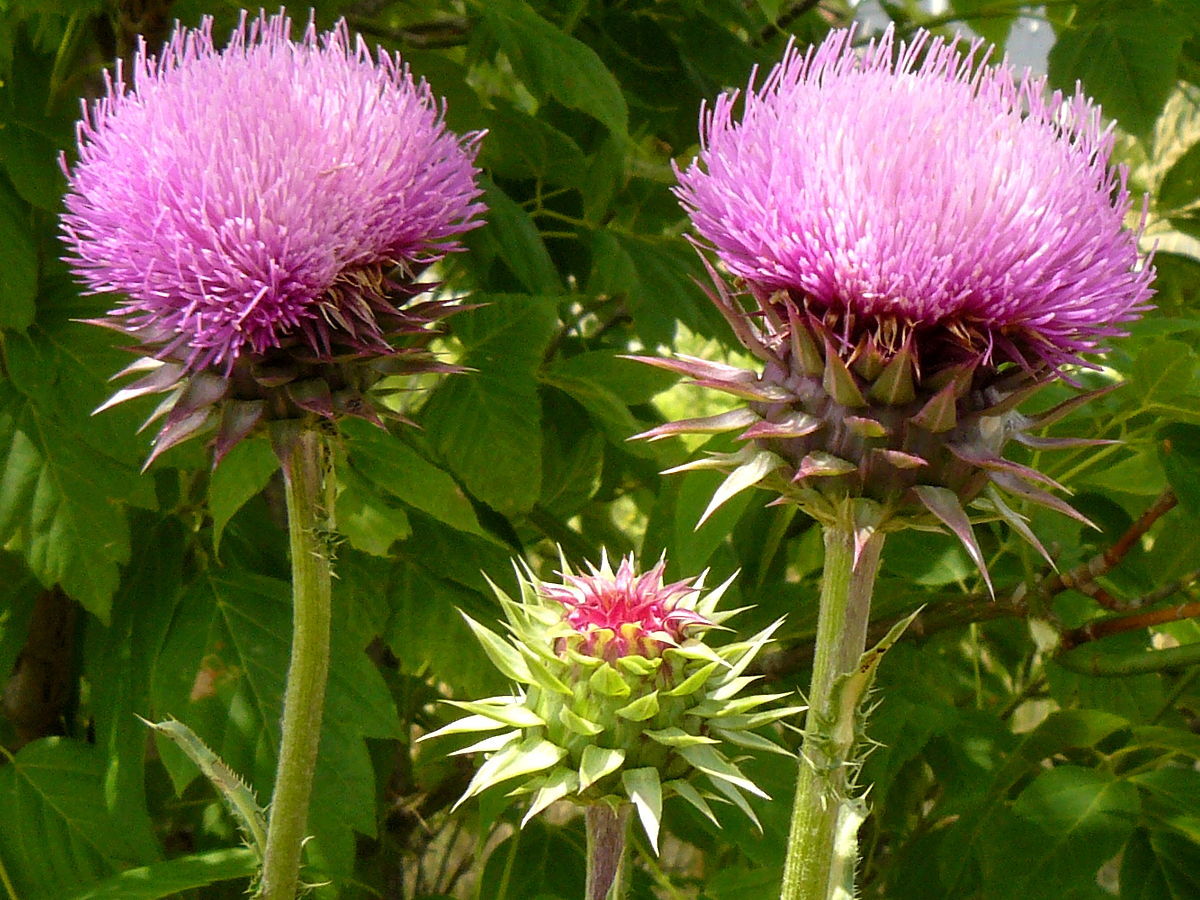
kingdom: Plantae
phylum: Tracheophyta
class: Magnoliopsida
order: Asterales
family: Asteraceae
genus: Carduus
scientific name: Carduus nutans
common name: Musk thistle
